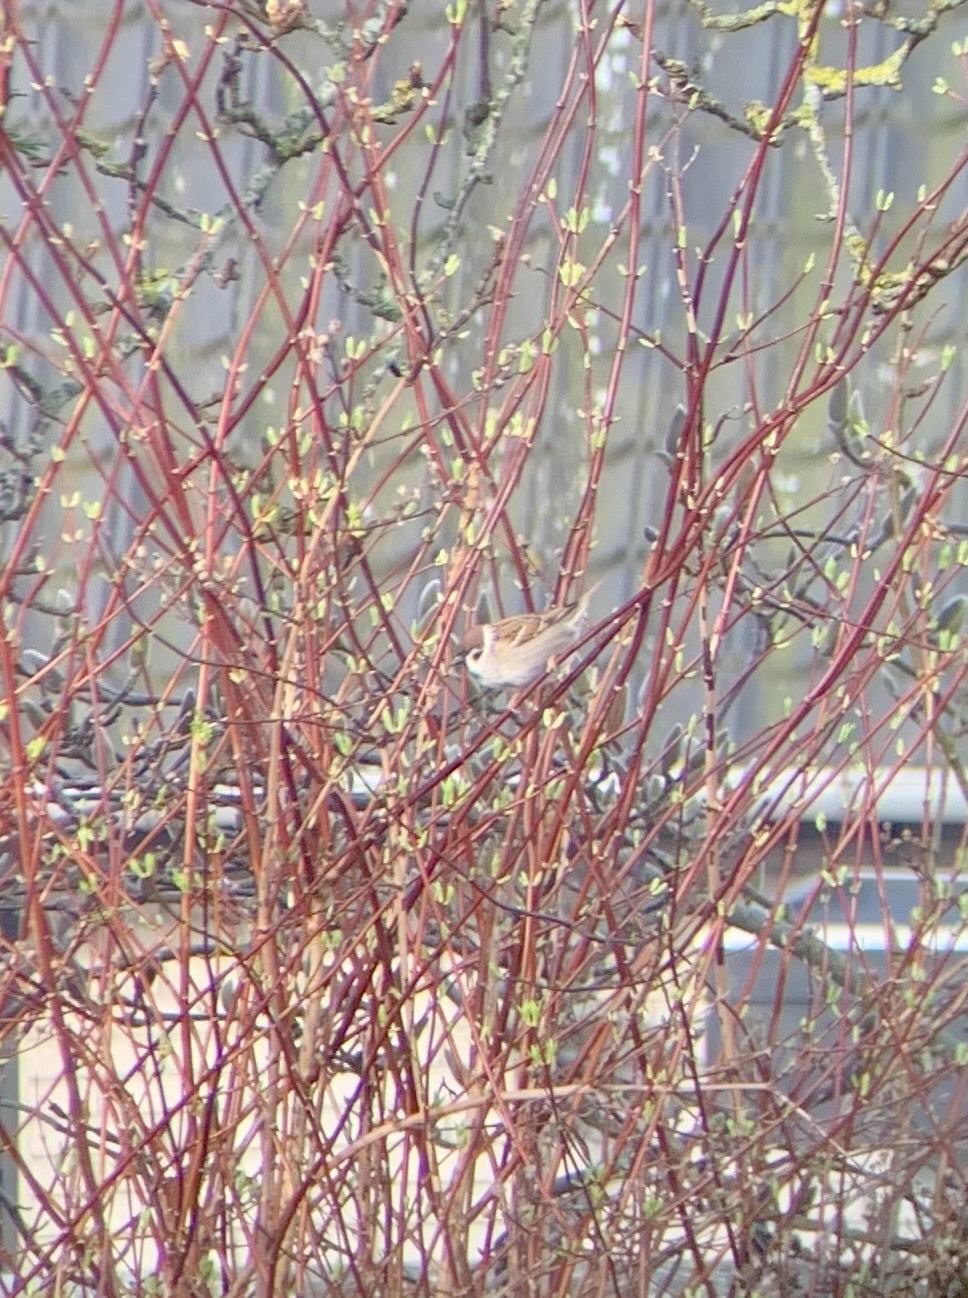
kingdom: Animalia
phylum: Chordata
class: Aves
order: Passeriformes
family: Passeridae
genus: Passer
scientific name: Passer montanus
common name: Eurasian tree sparrow
